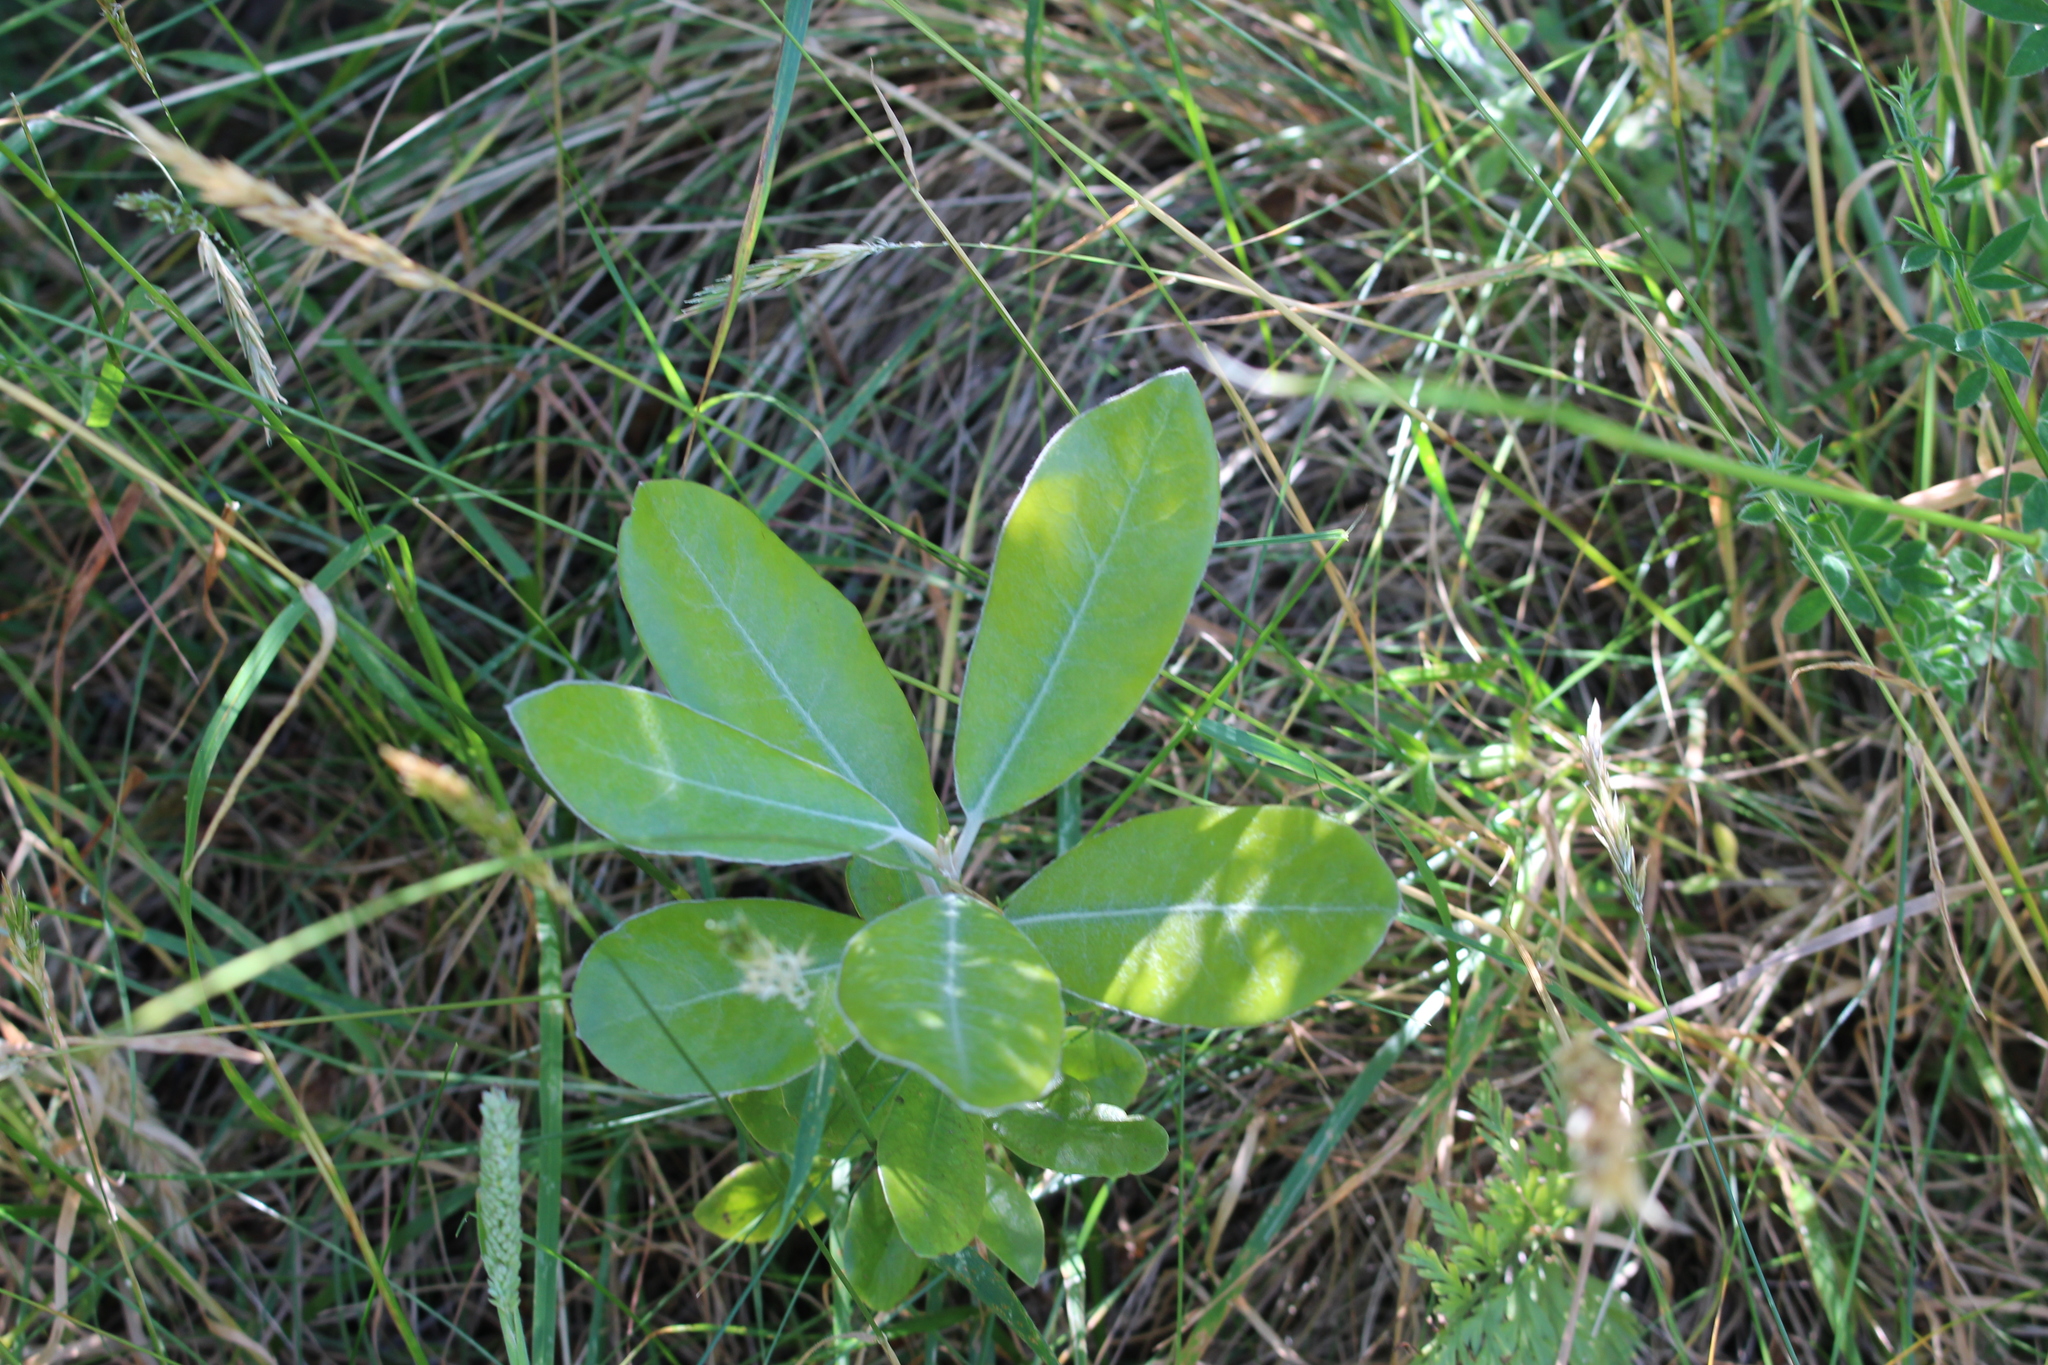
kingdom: Plantae
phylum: Tracheophyta
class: Magnoliopsida
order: Apiales
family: Pittosporaceae
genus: Pittosporum
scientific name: Pittosporum ralphii
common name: Ralph's desertwillow
